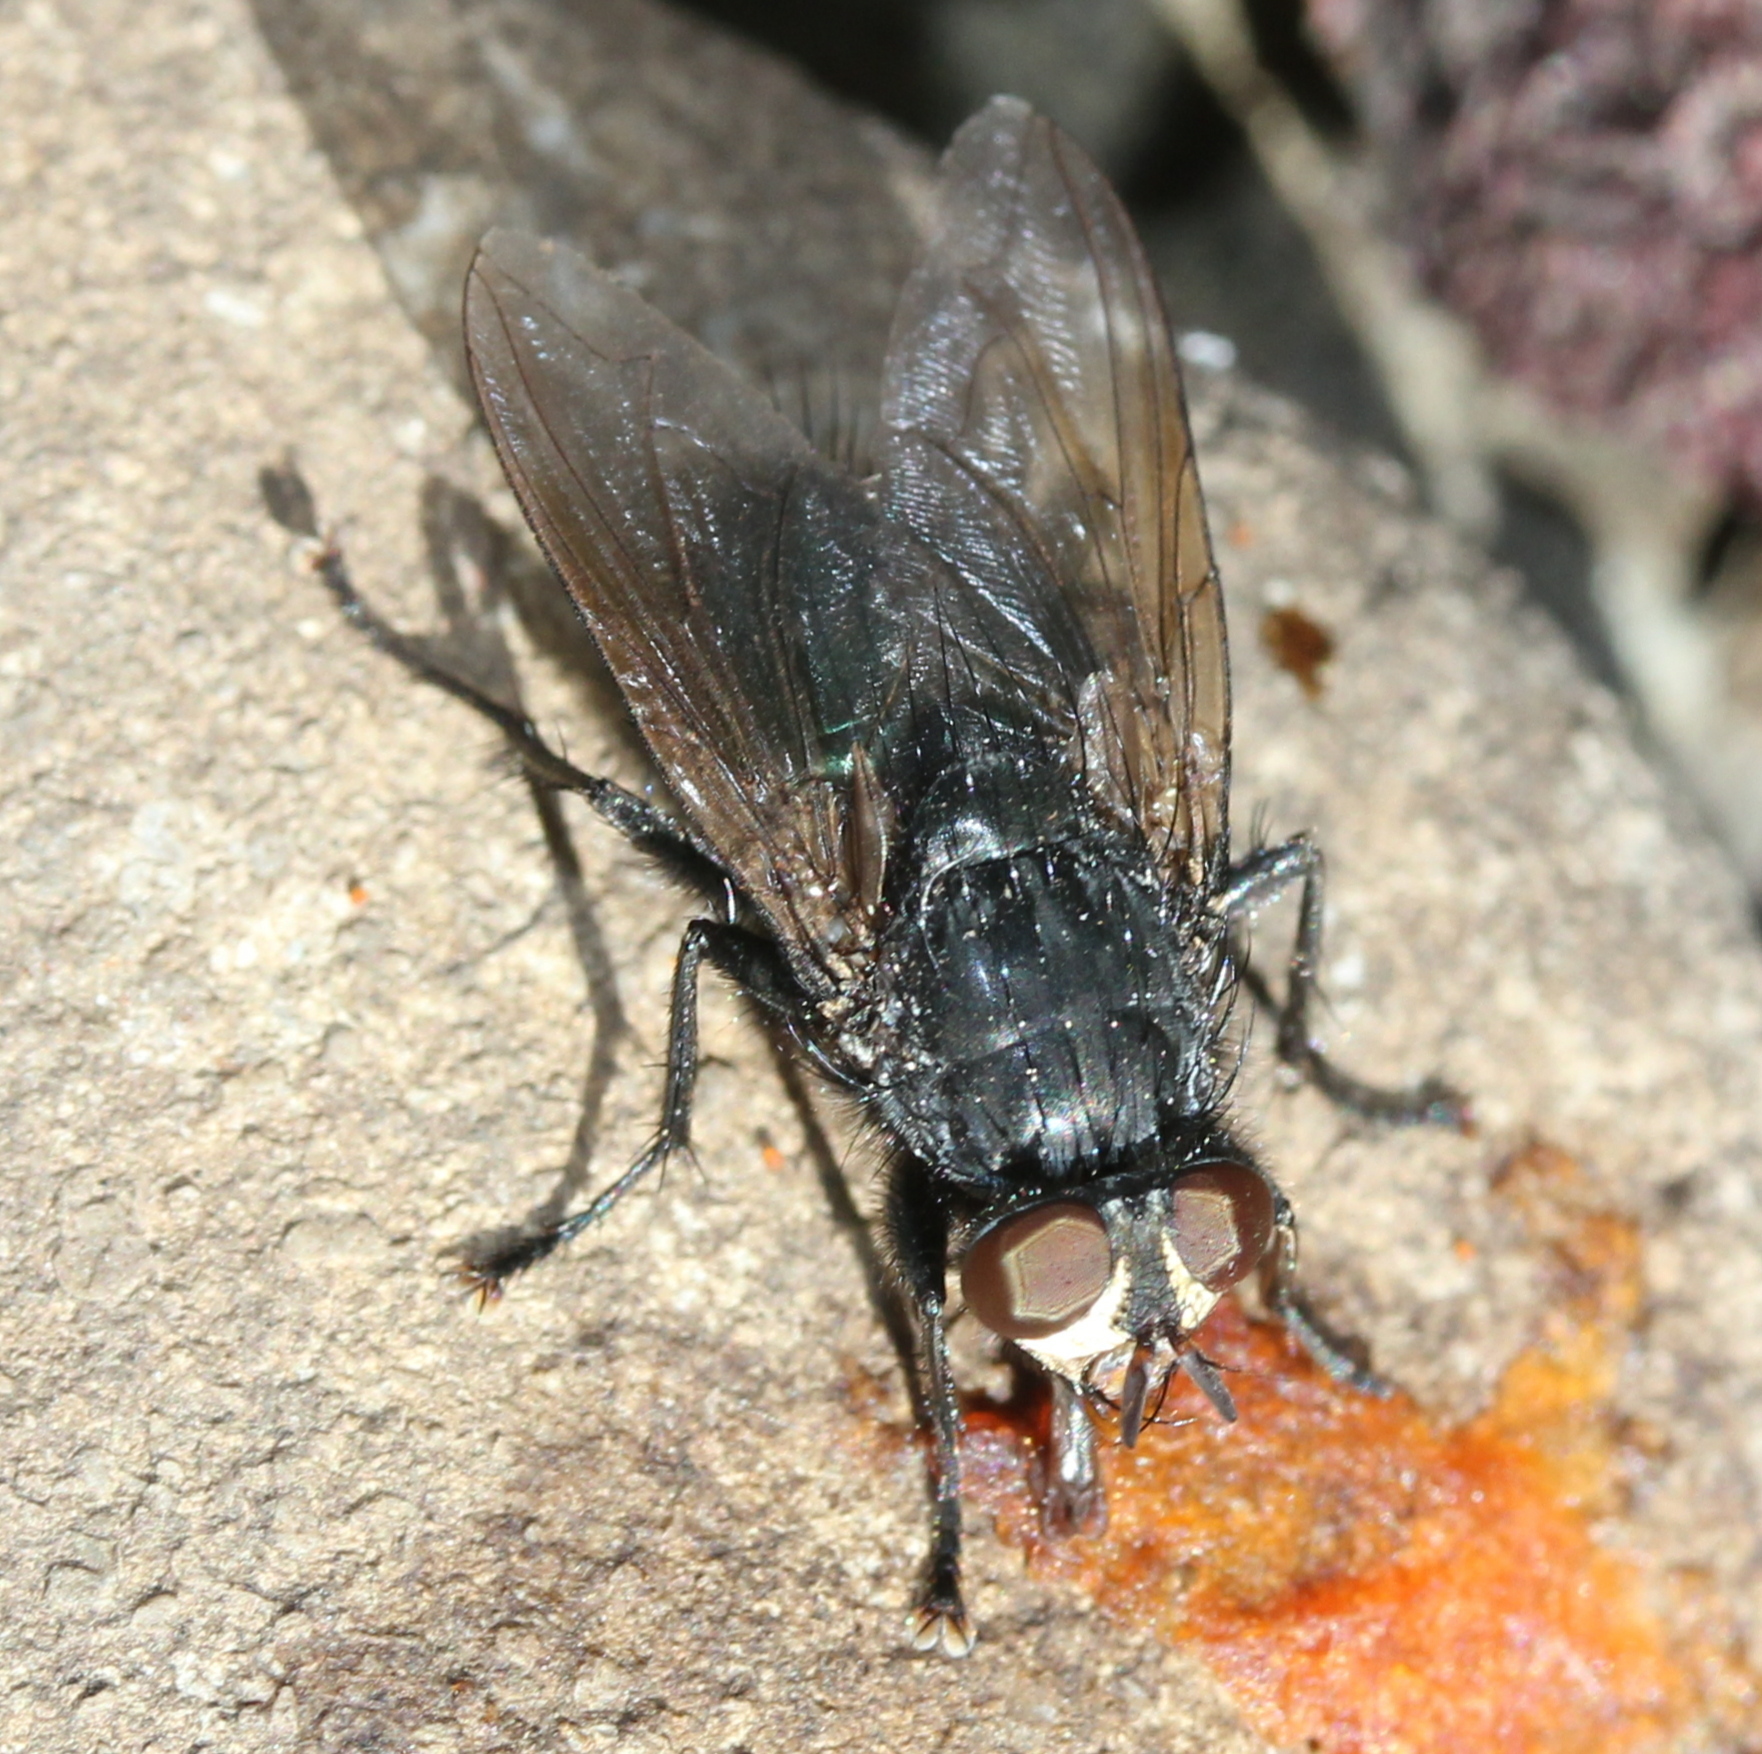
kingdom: Animalia
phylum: Arthropoda
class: Insecta
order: Diptera
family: Calliphoridae
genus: Cynomya
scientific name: Cynomya cadaverina
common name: Shiny blue bottle fly
